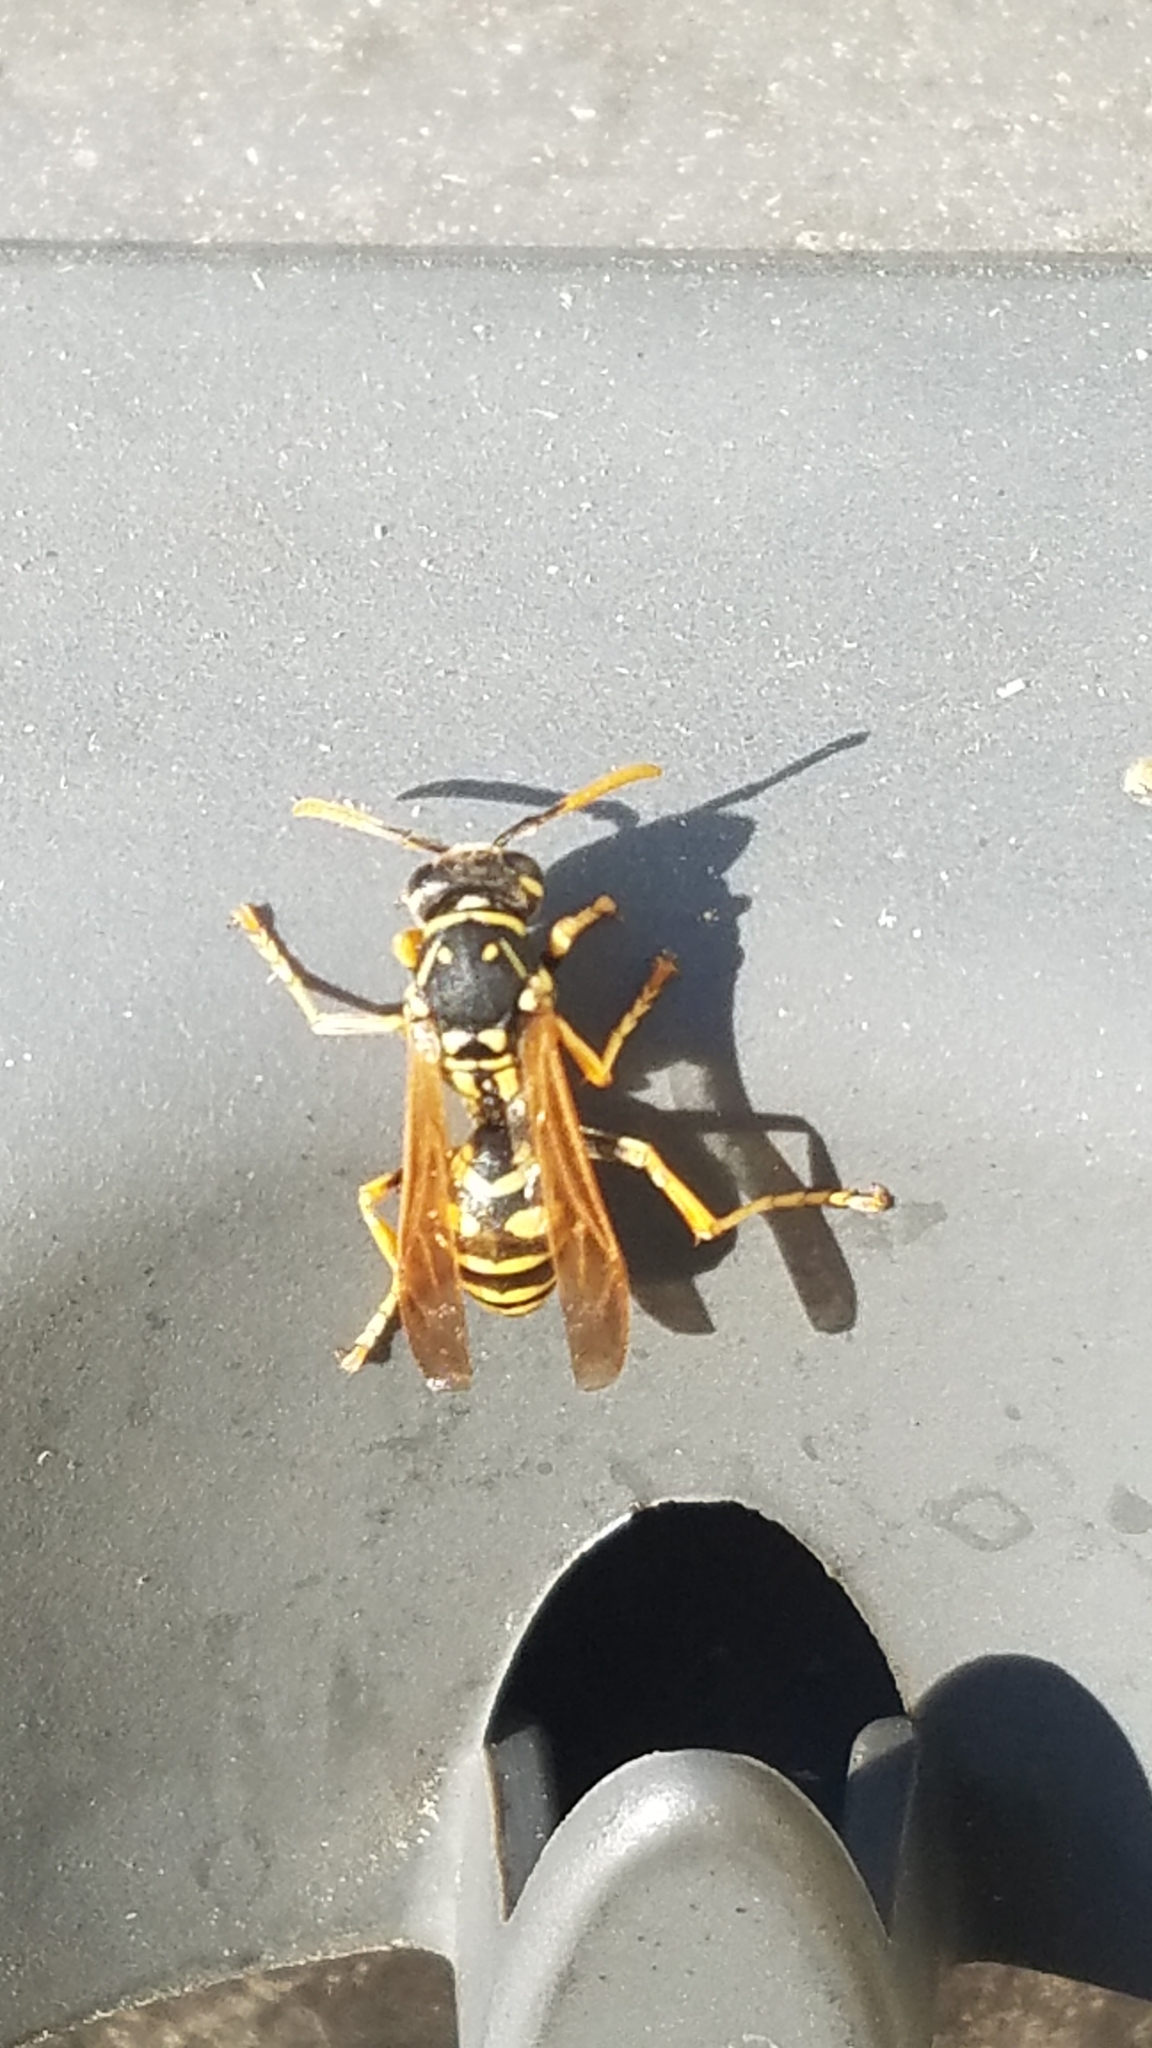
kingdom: Animalia
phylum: Arthropoda
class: Insecta
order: Hymenoptera
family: Eumenidae
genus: Polistes
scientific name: Polistes dominula
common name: Paper wasp
